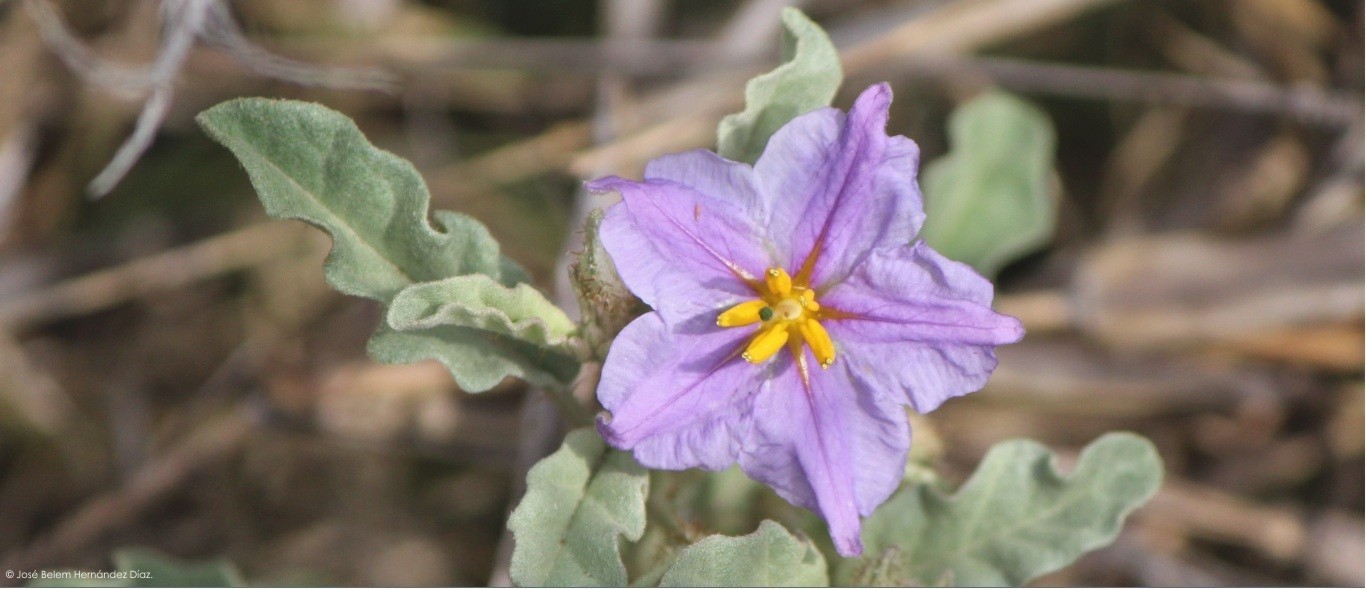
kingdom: Plantae
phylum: Tracheophyta
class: Magnoliopsida
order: Solanales
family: Solanaceae
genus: Solanum
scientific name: Solanum elaeagnifolium
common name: Silverleaf nightshade
